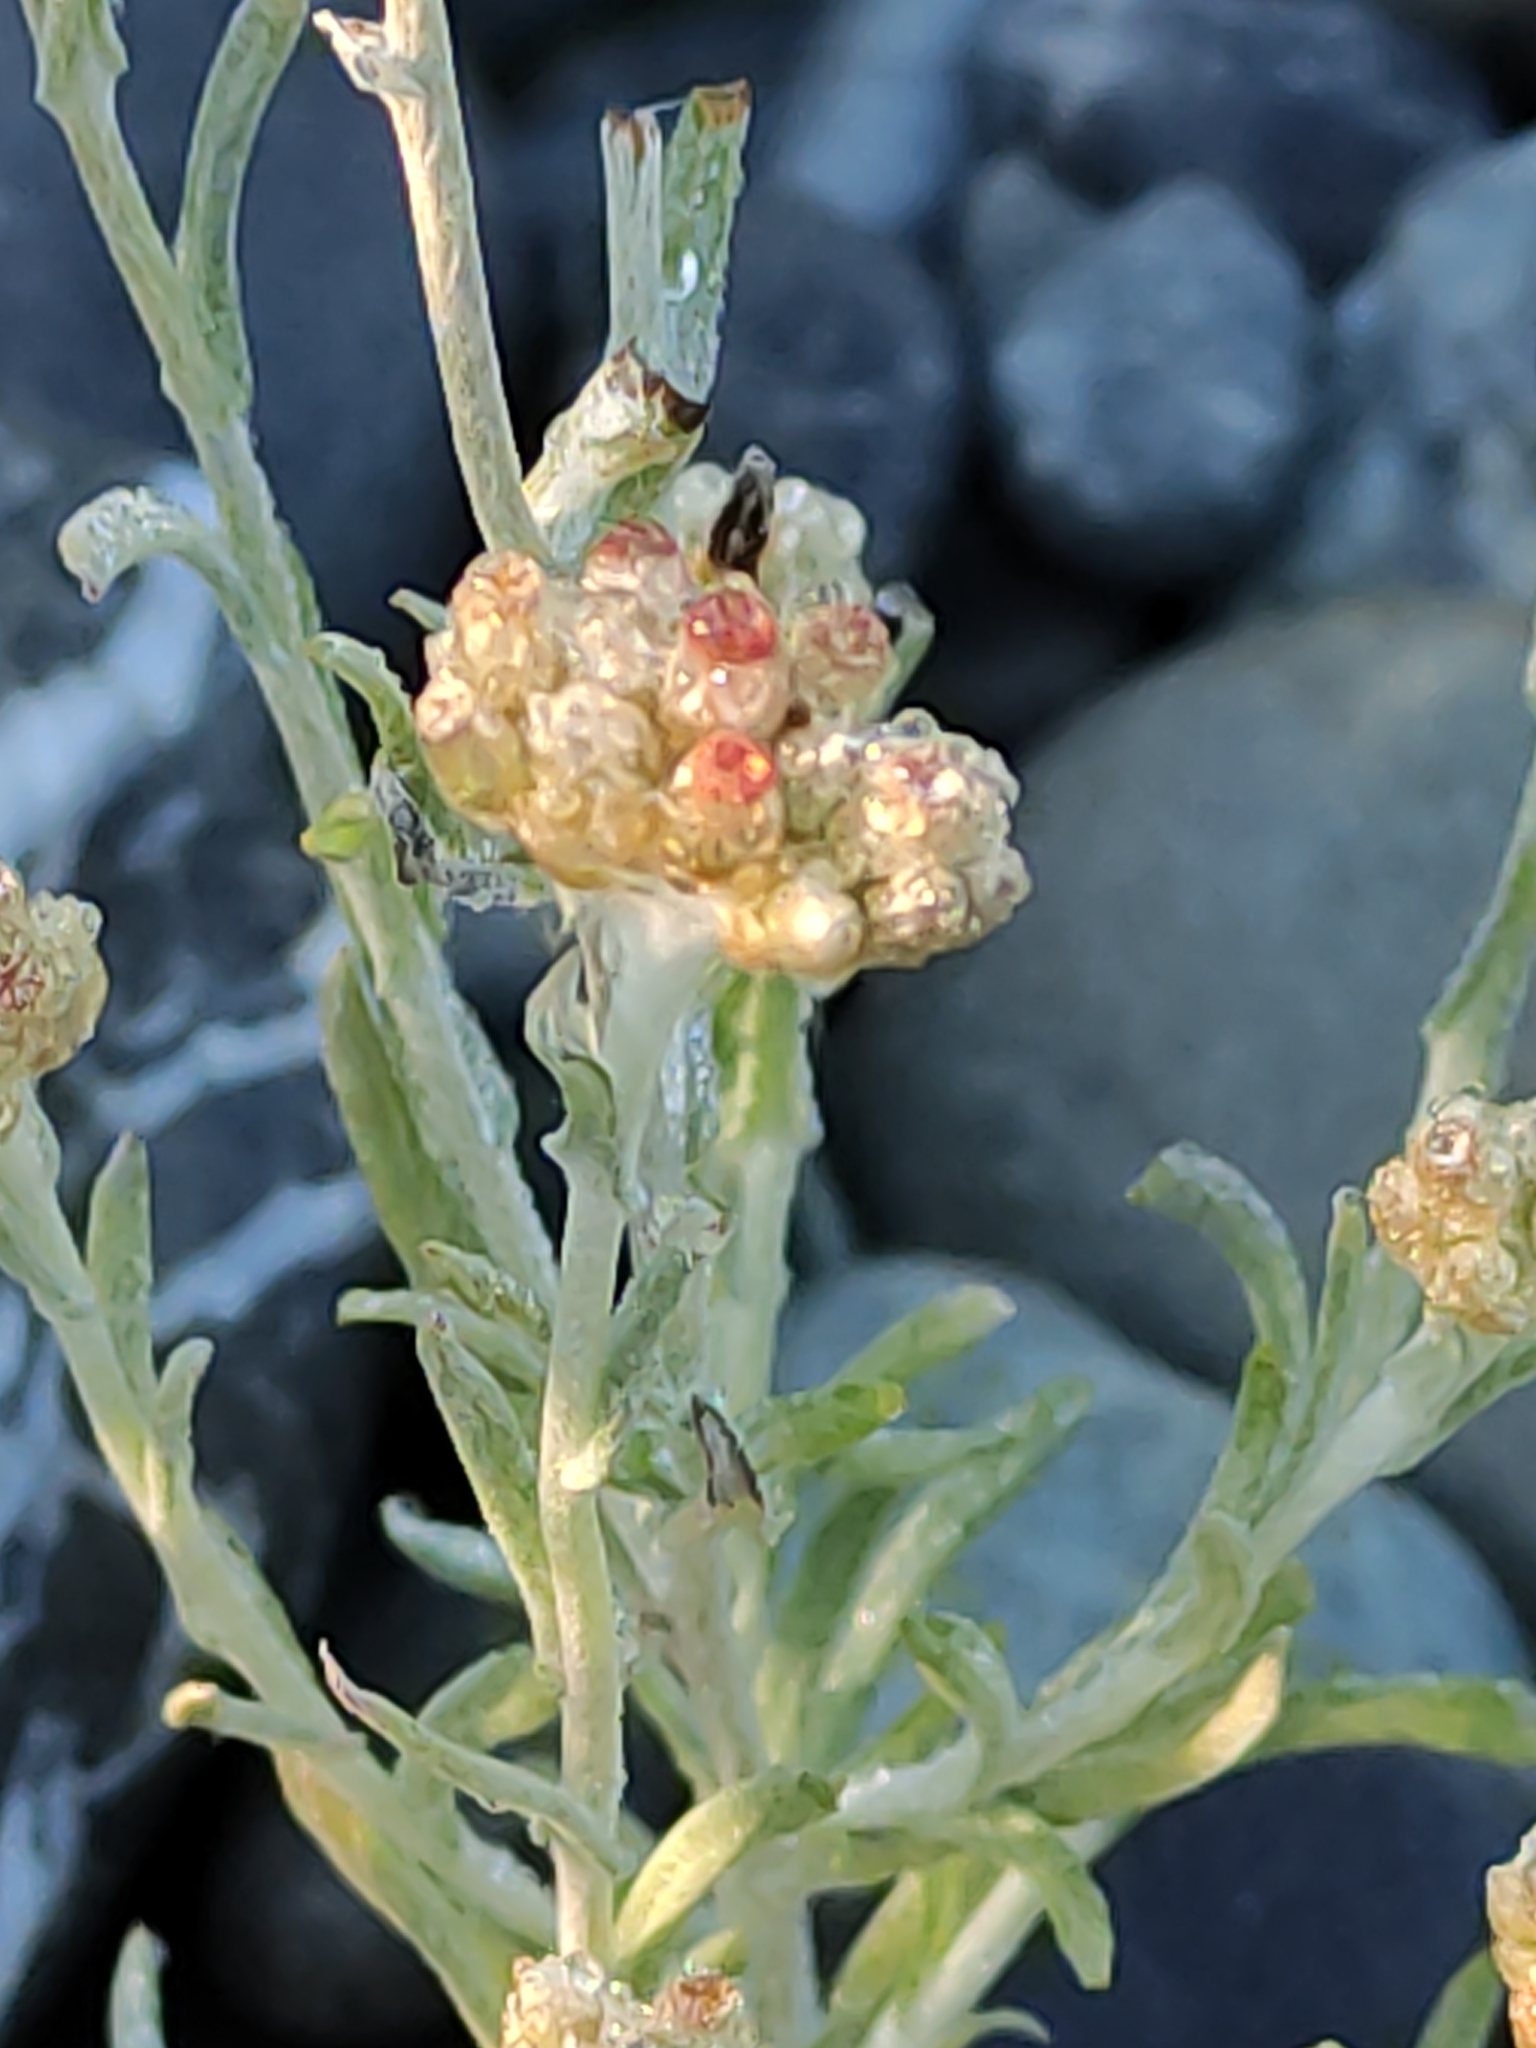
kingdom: Plantae
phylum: Tracheophyta
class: Magnoliopsida
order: Asterales
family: Asteraceae
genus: Helichrysum
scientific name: Helichrysum luteoalbum
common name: Daisy
